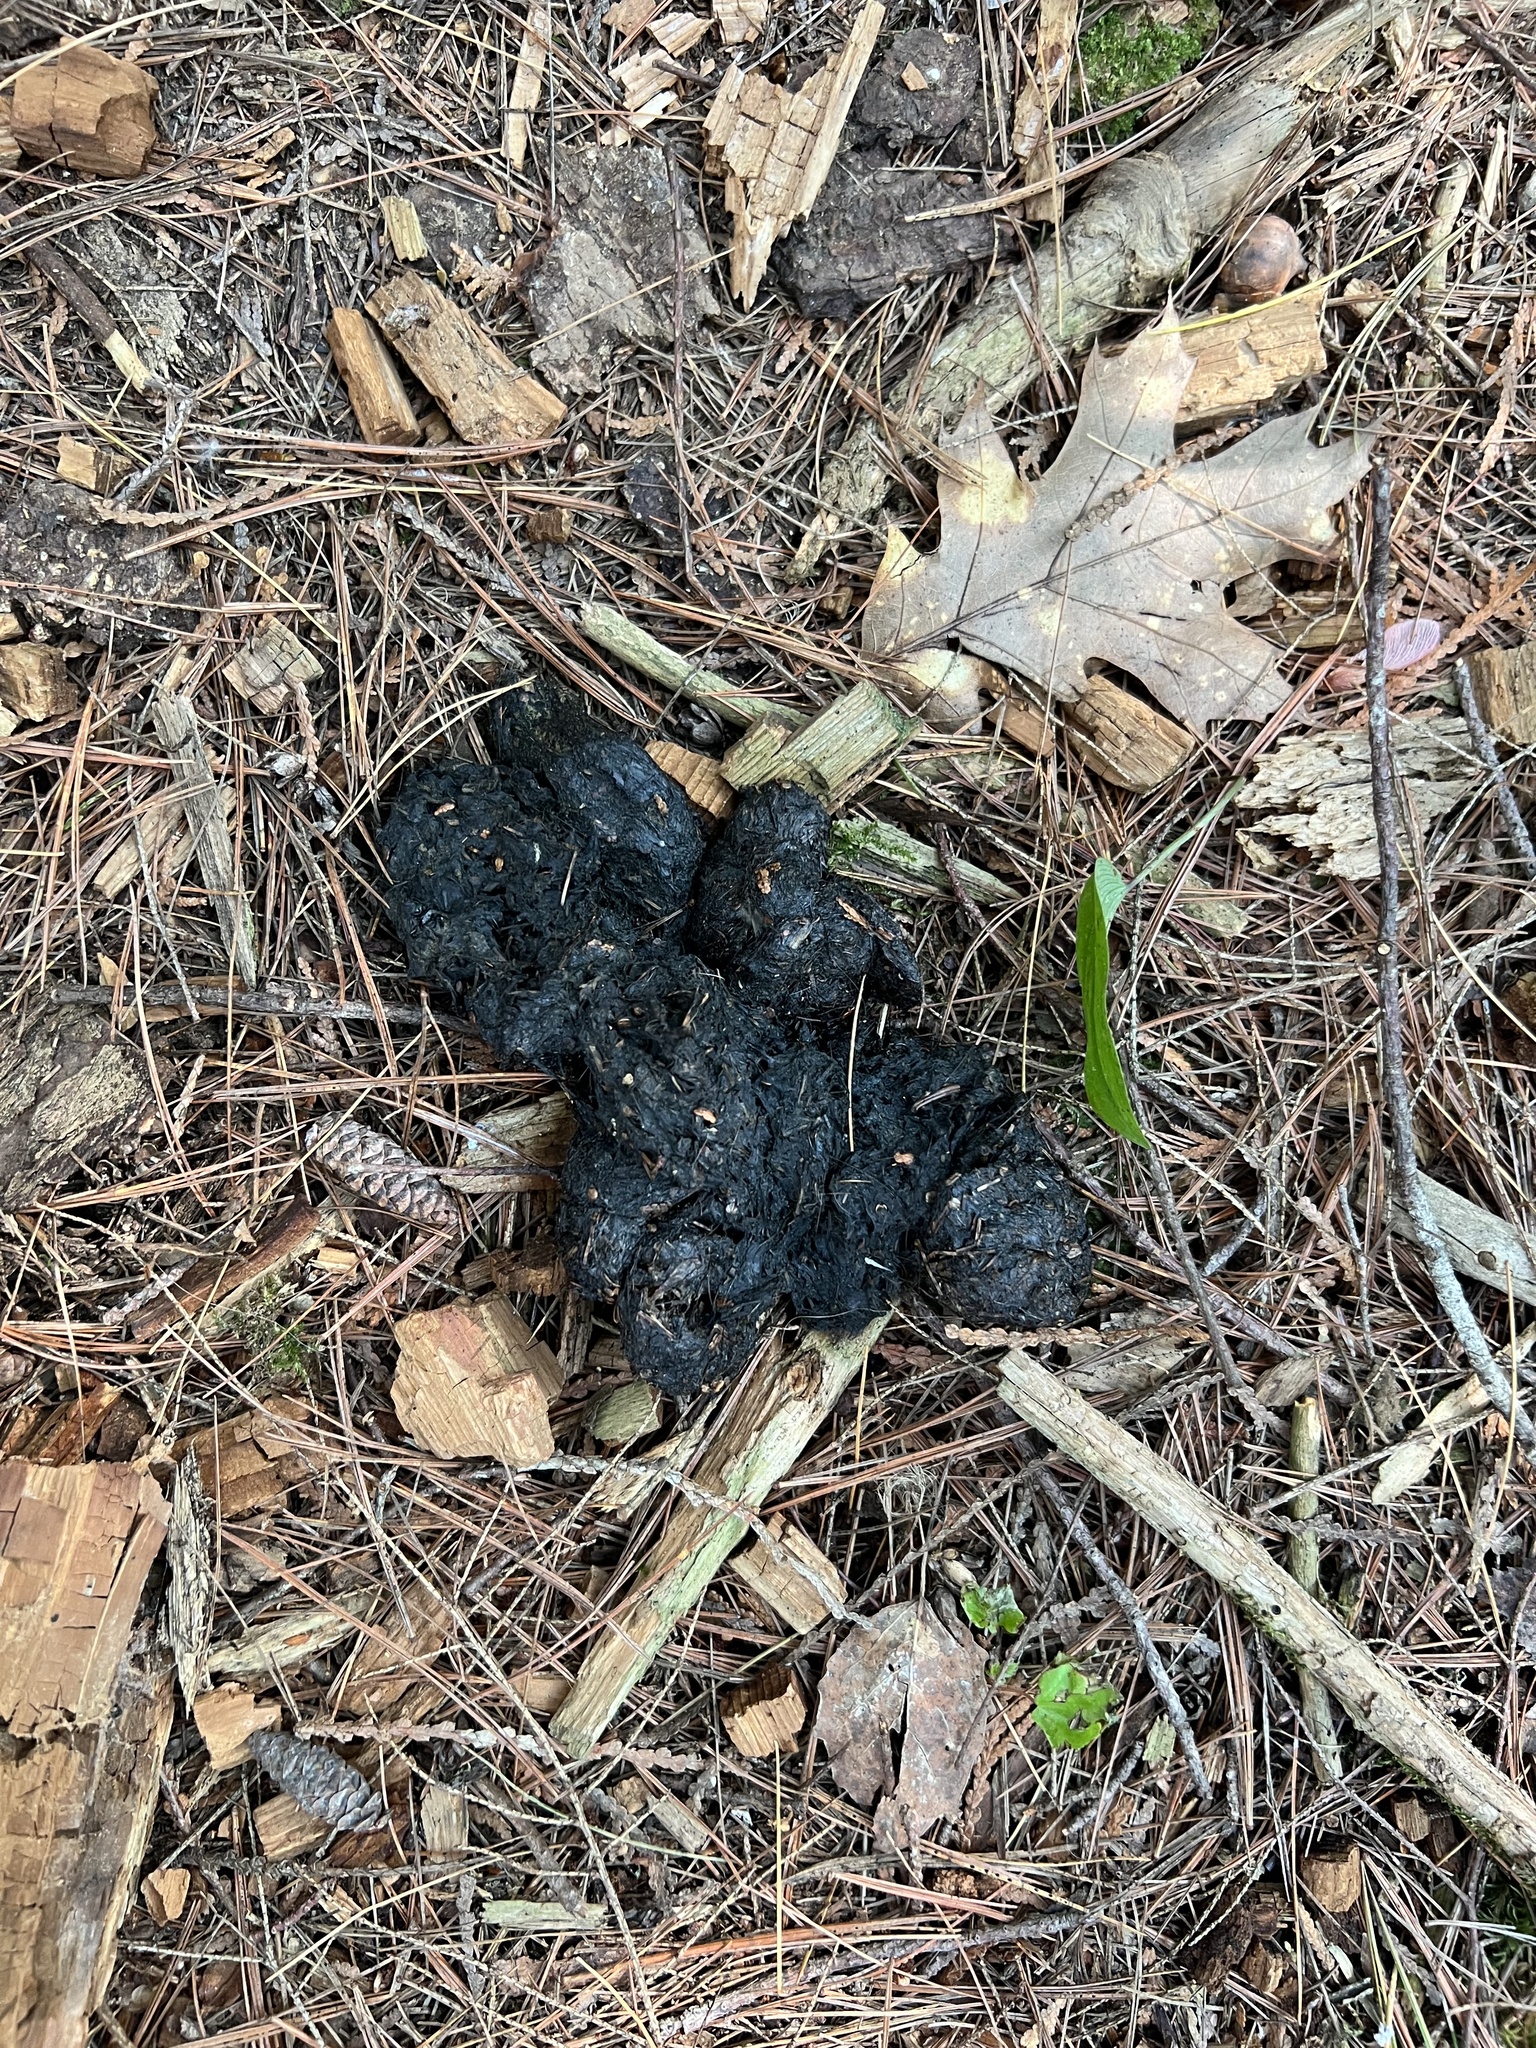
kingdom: Animalia
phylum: Chordata
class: Mammalia
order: Carnivora
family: Ursidae
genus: Ursus
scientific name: Ursus americanus
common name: American black bear
